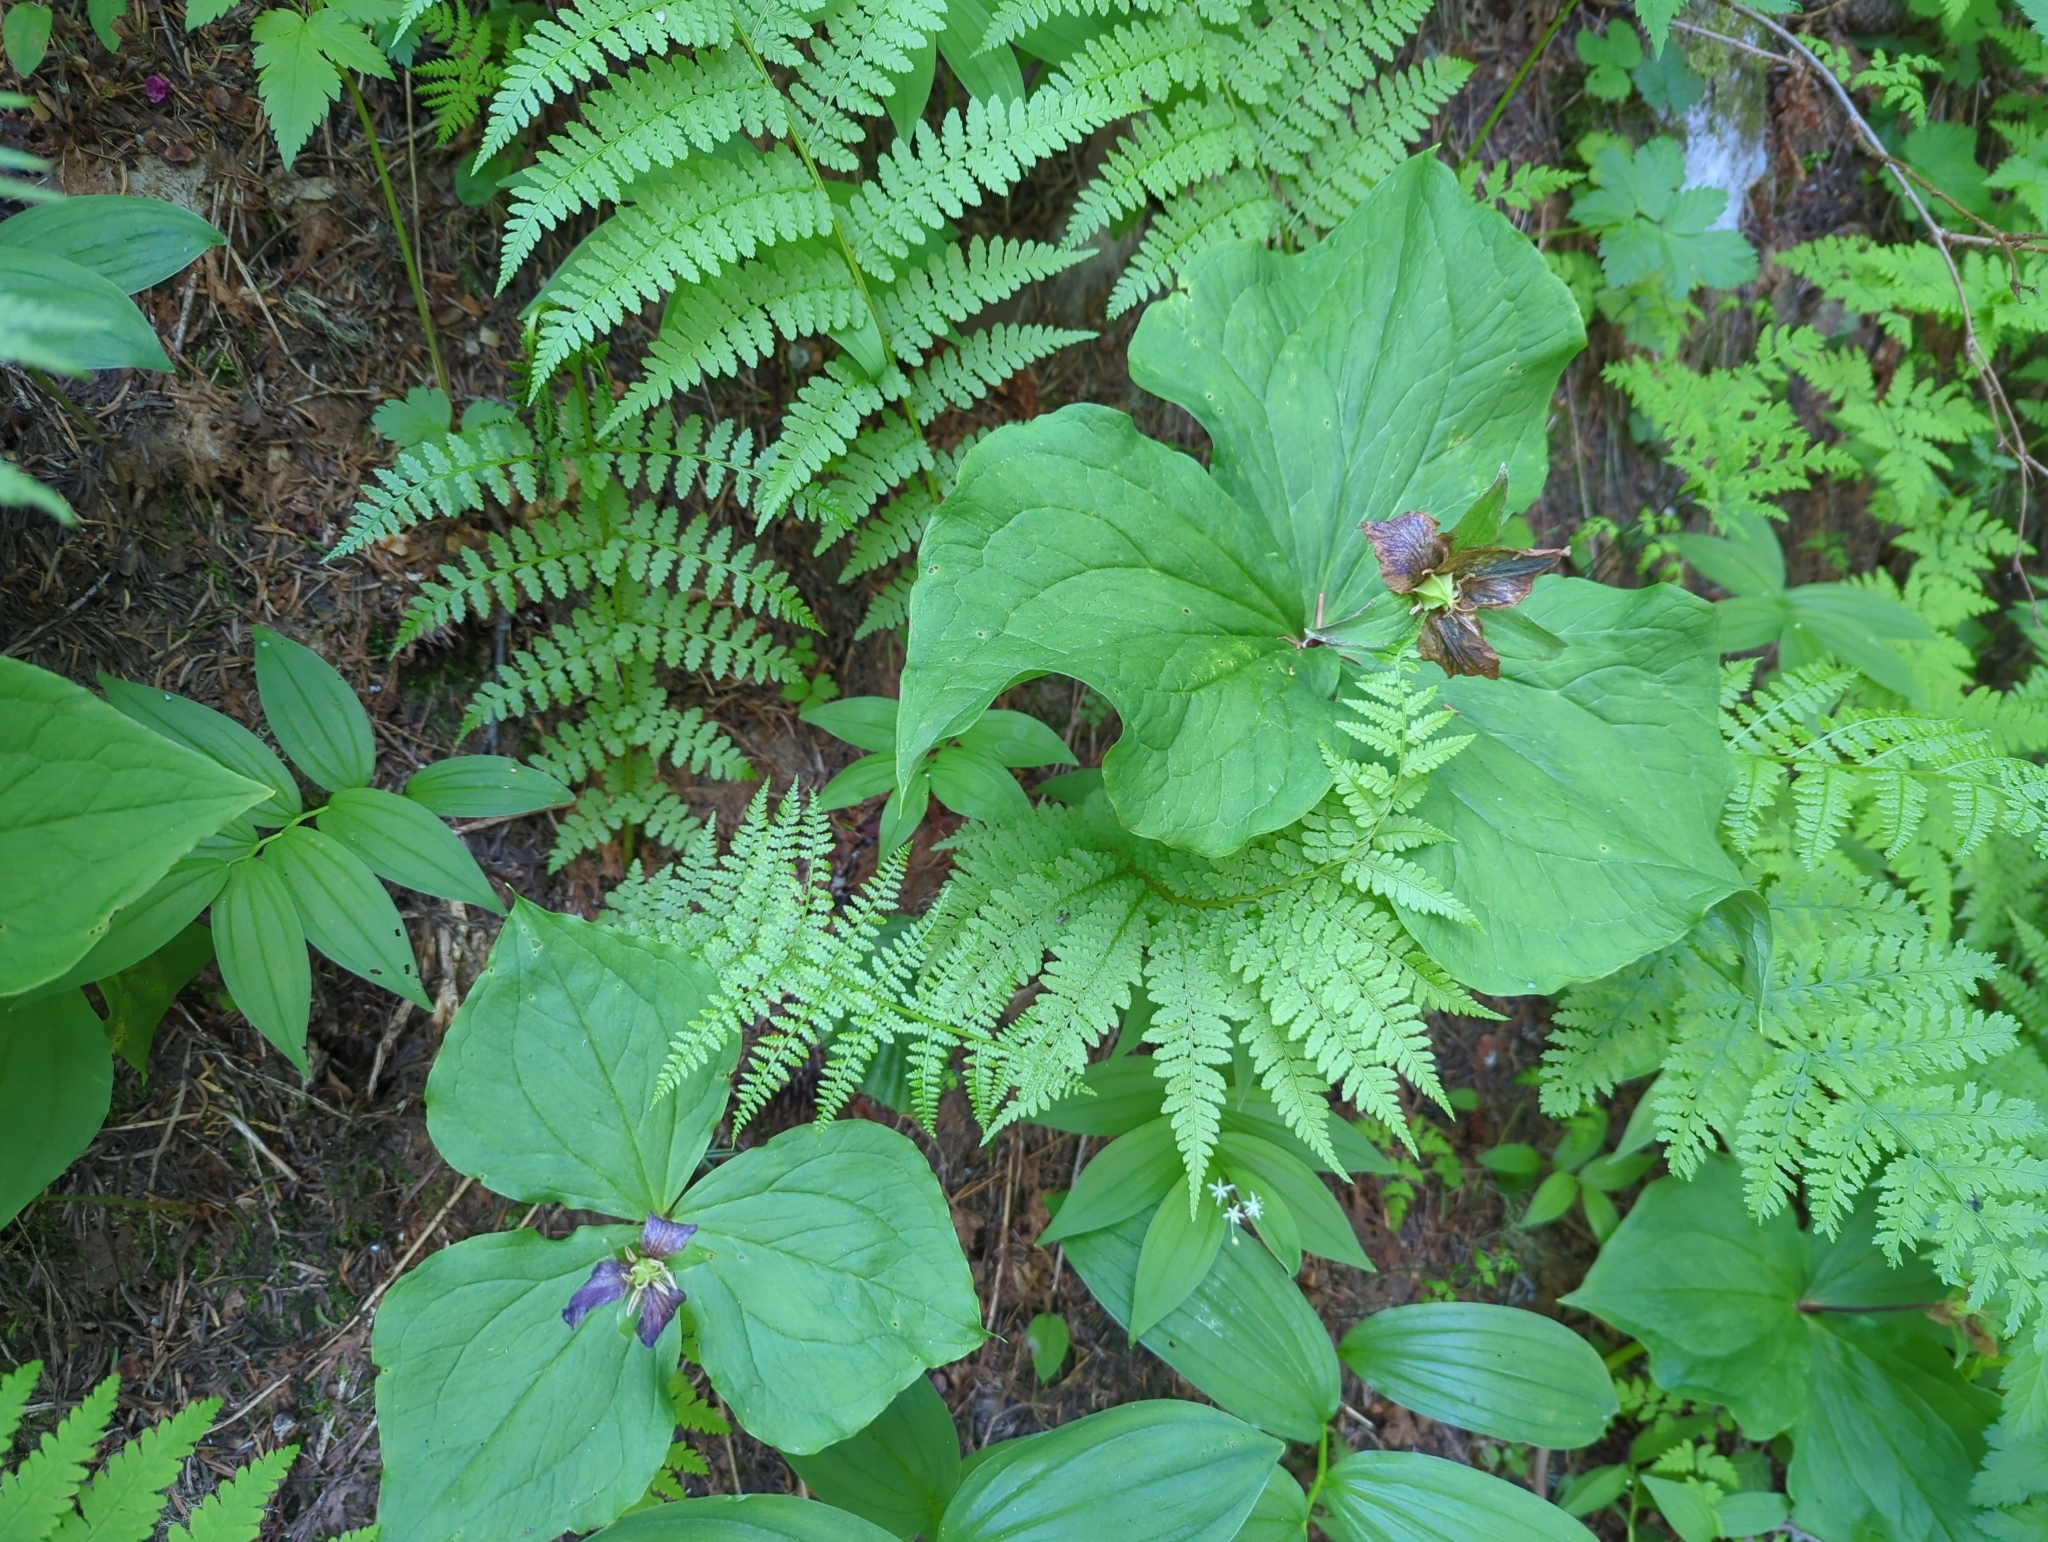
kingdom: Plantae
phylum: Tracheophyta
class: Liliopsida
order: Liliales
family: Melanthiaceae
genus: Trillium
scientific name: Trillium ovatum
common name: Pacific trillium
